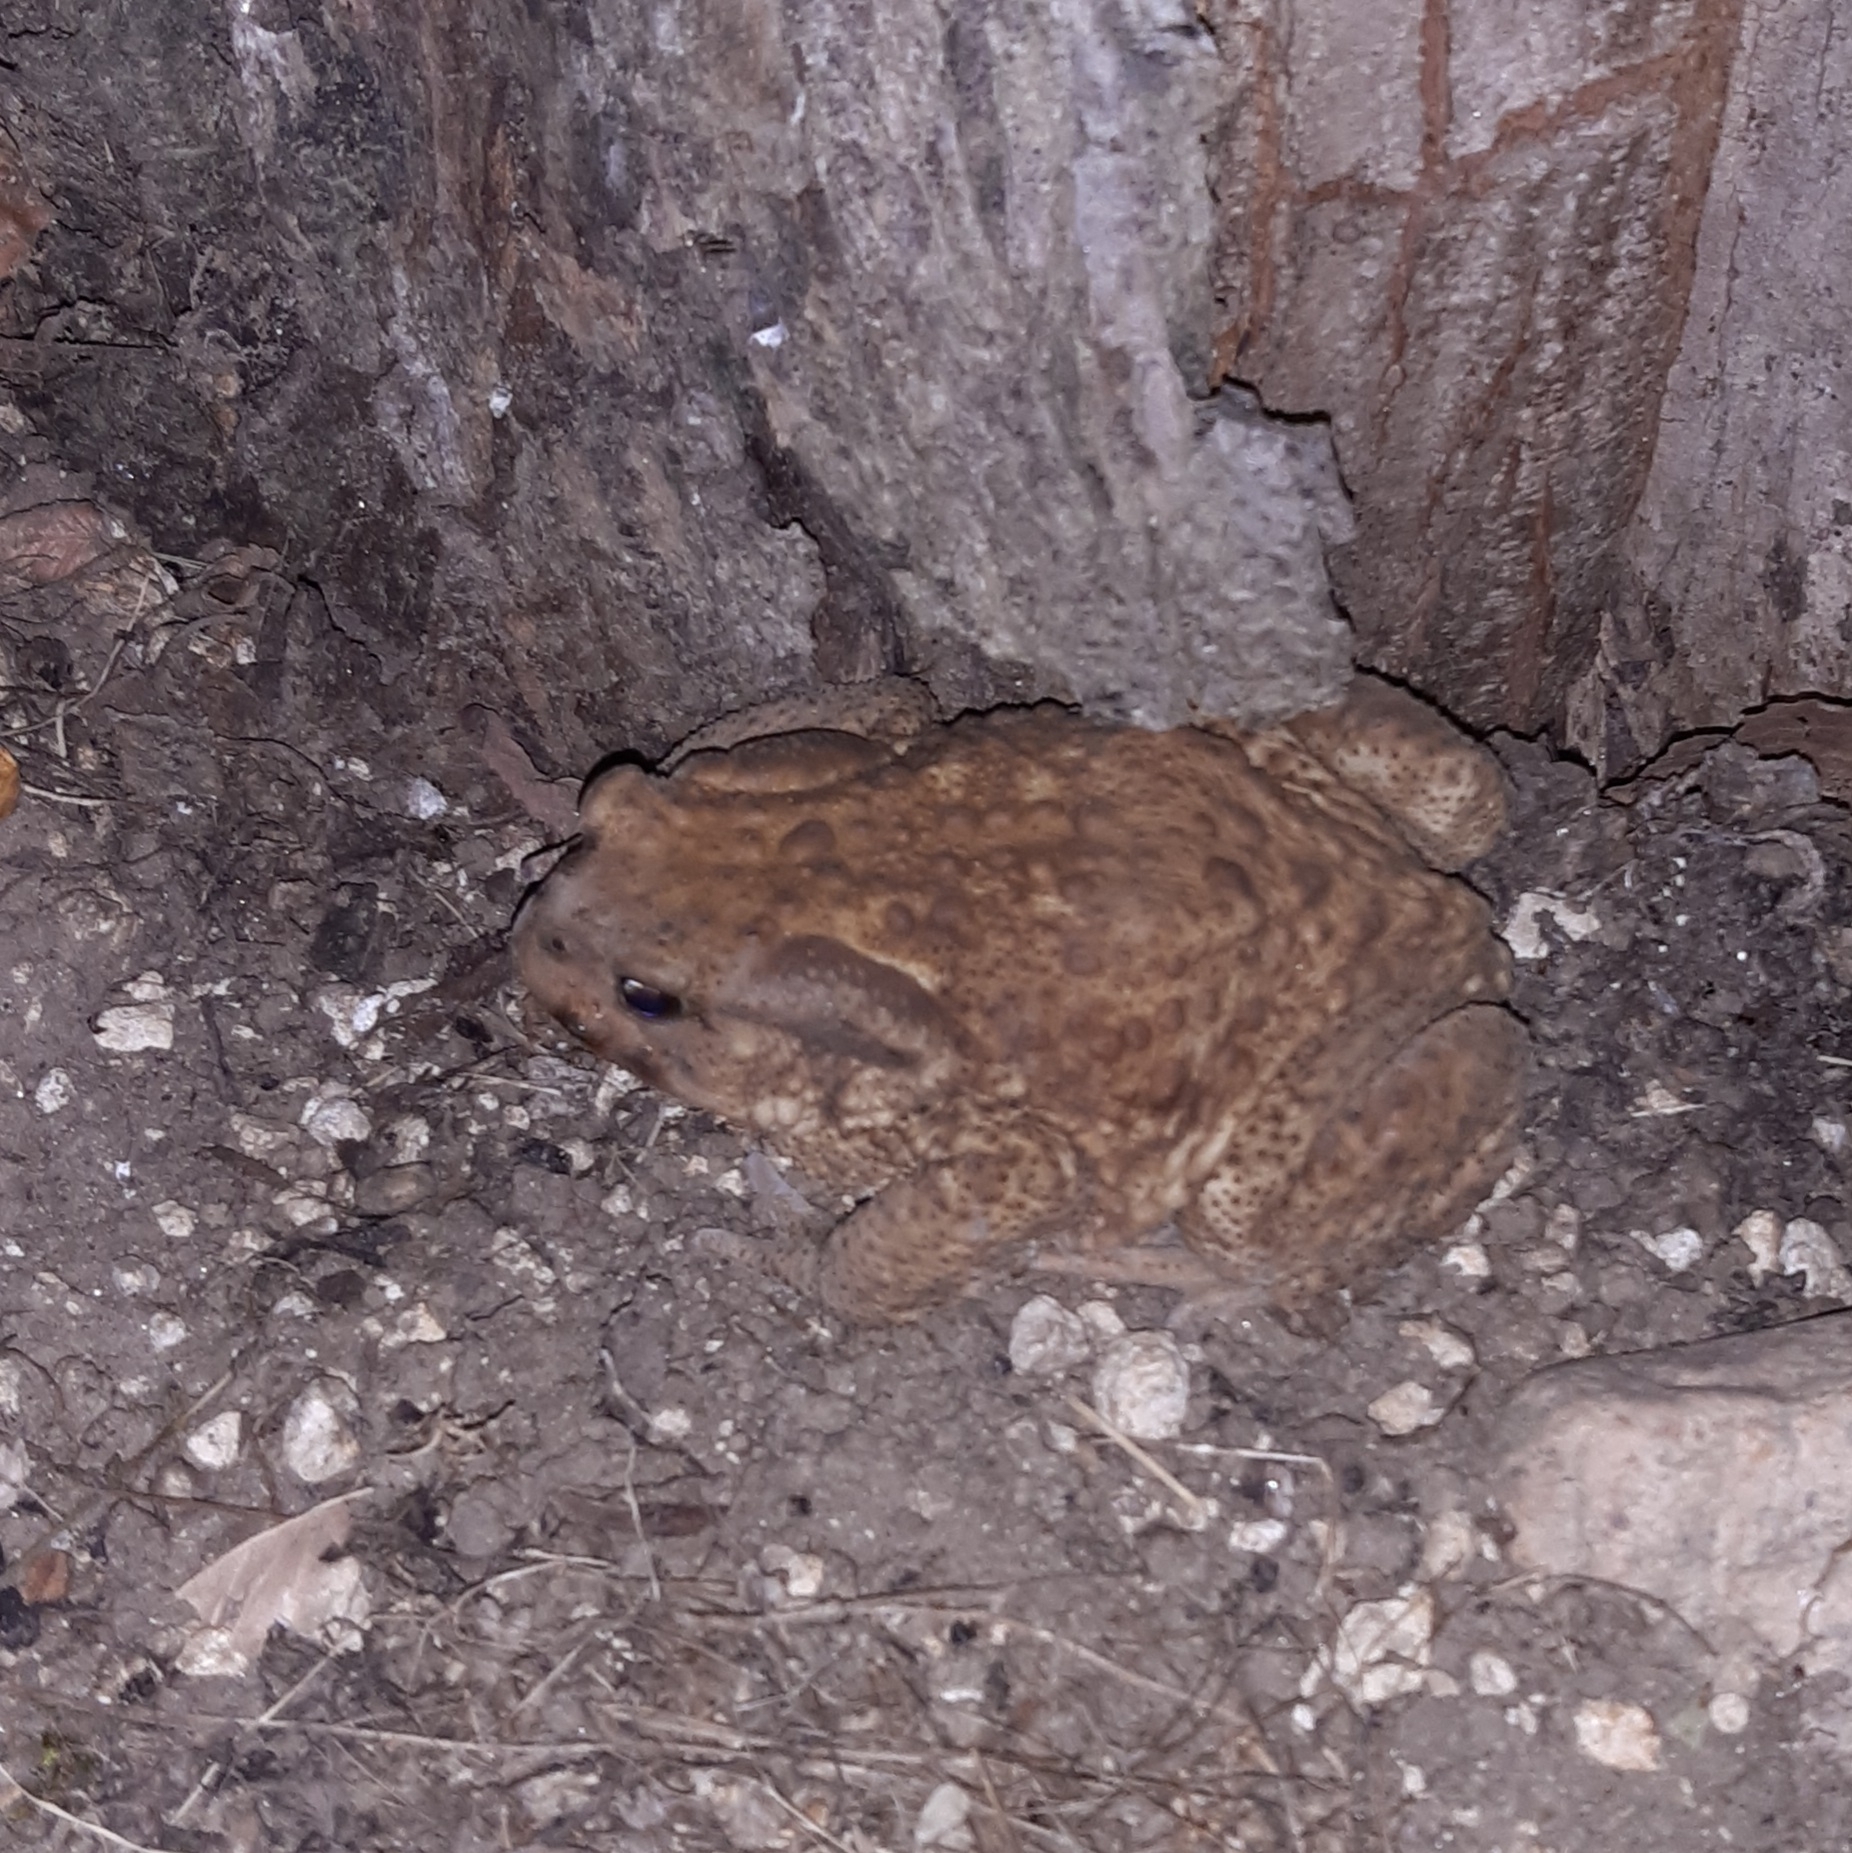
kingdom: Animalia
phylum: Chordata
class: Amphibia
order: Anura
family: Bufonidae
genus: Bufo
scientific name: Bufo spinosus
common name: Western common toad
